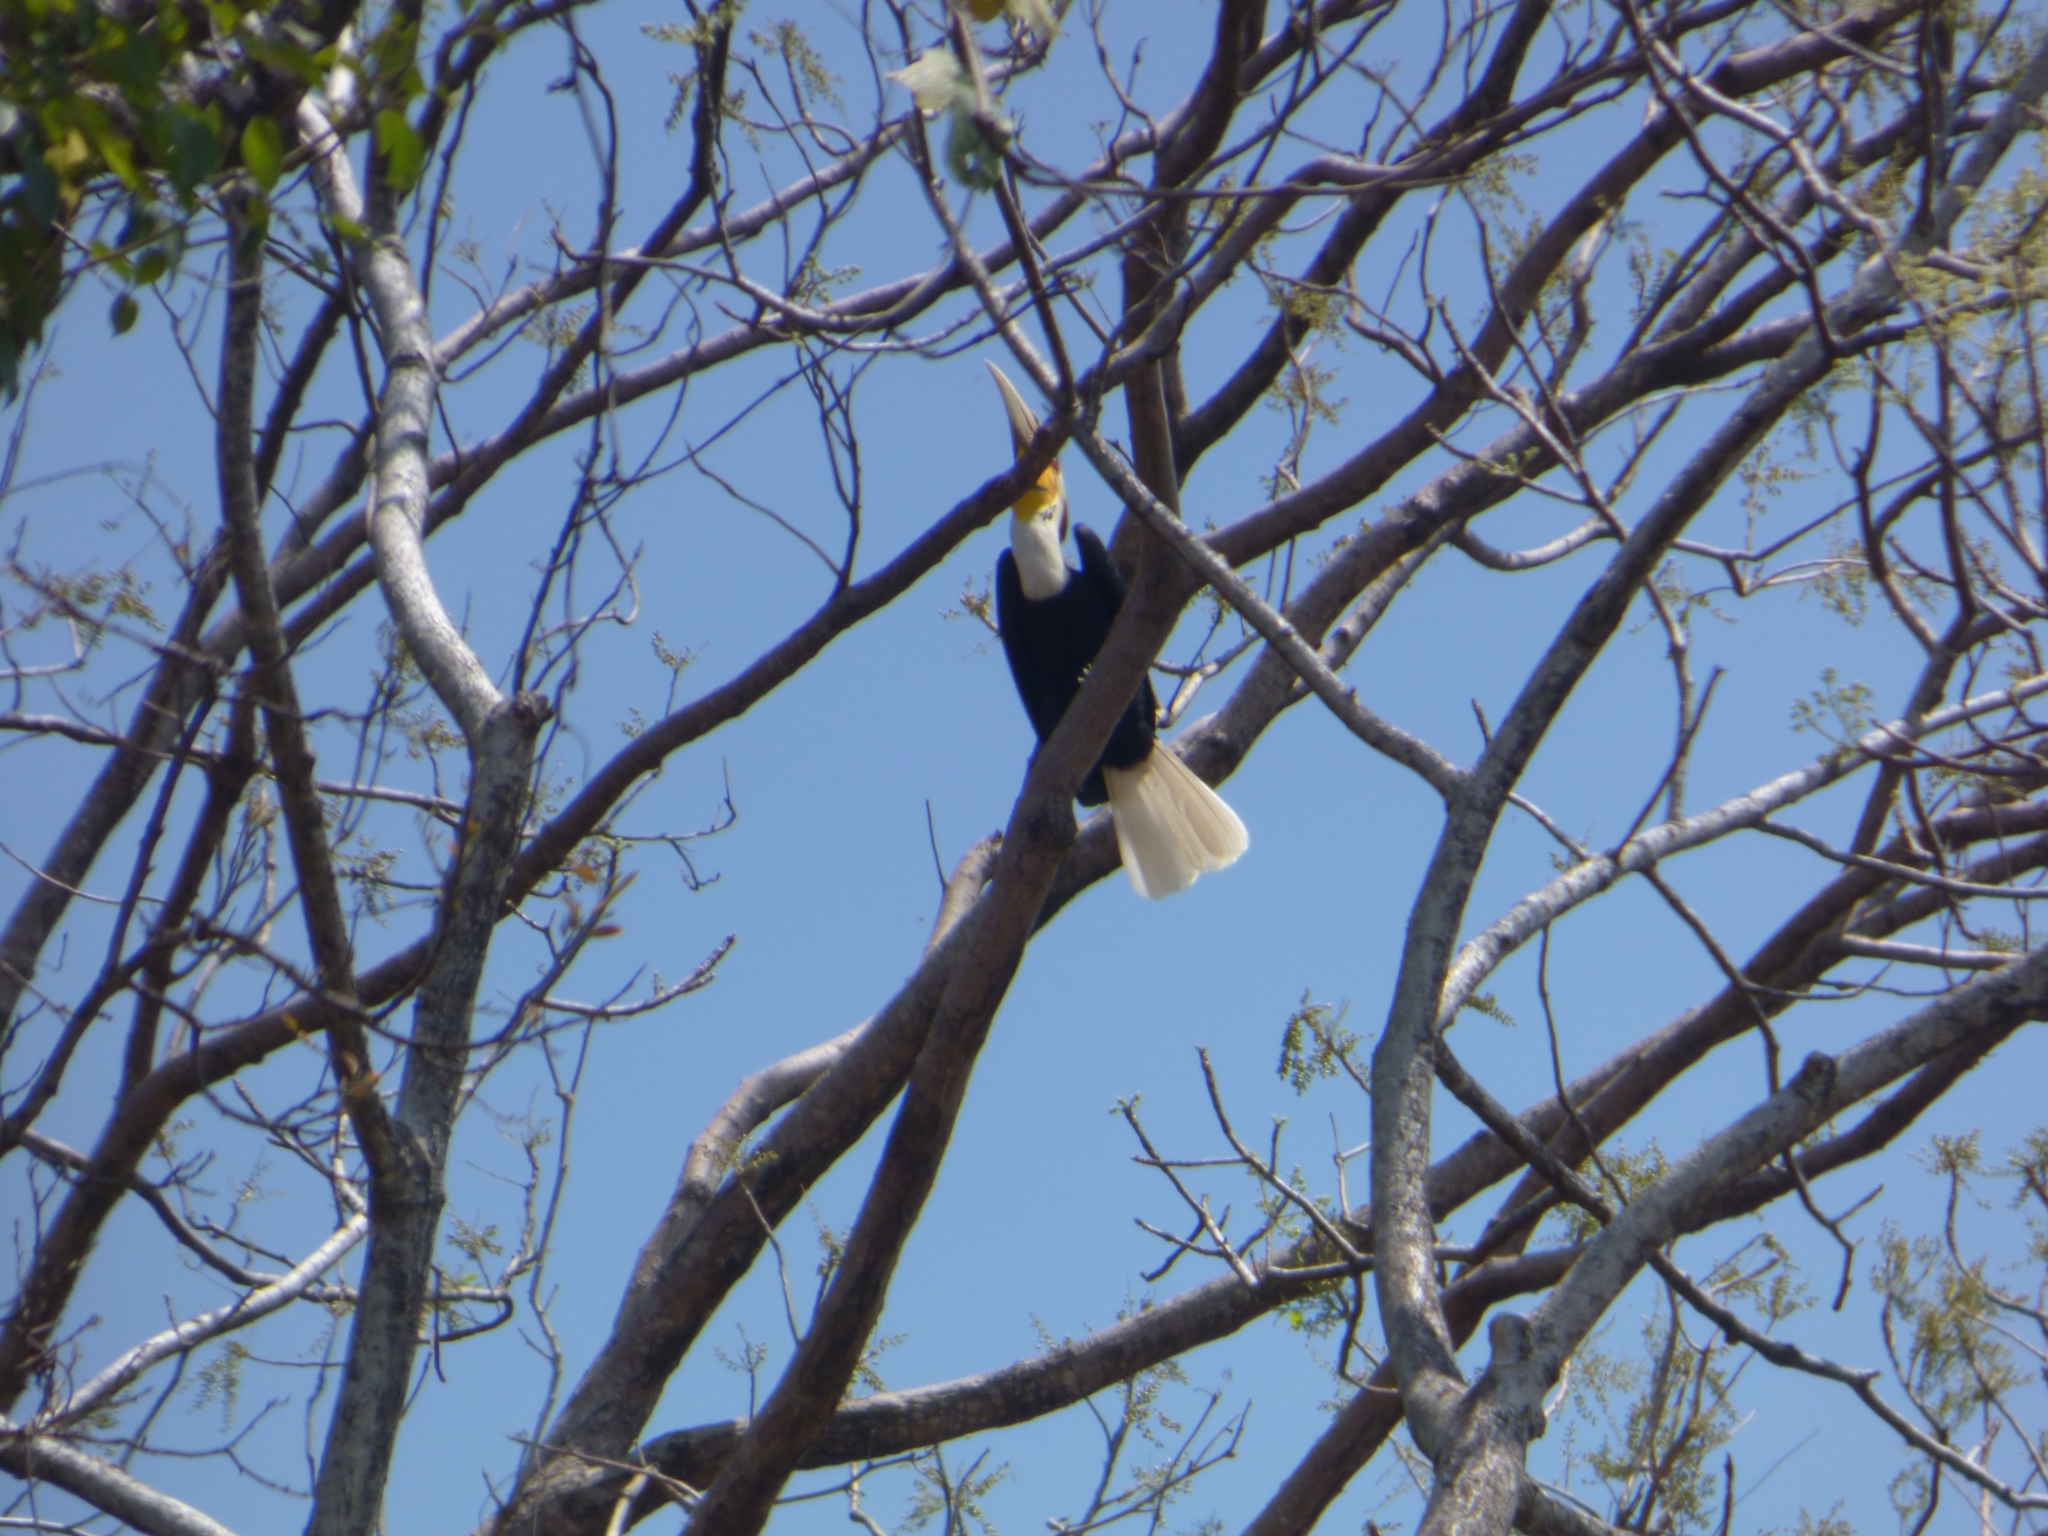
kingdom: Animalia
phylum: Chordata
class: Aves
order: Bucerotiformes
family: Bucerotidae
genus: Rhyticeros
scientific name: Rhyticeros undulatus
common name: Wreathed hornbill
